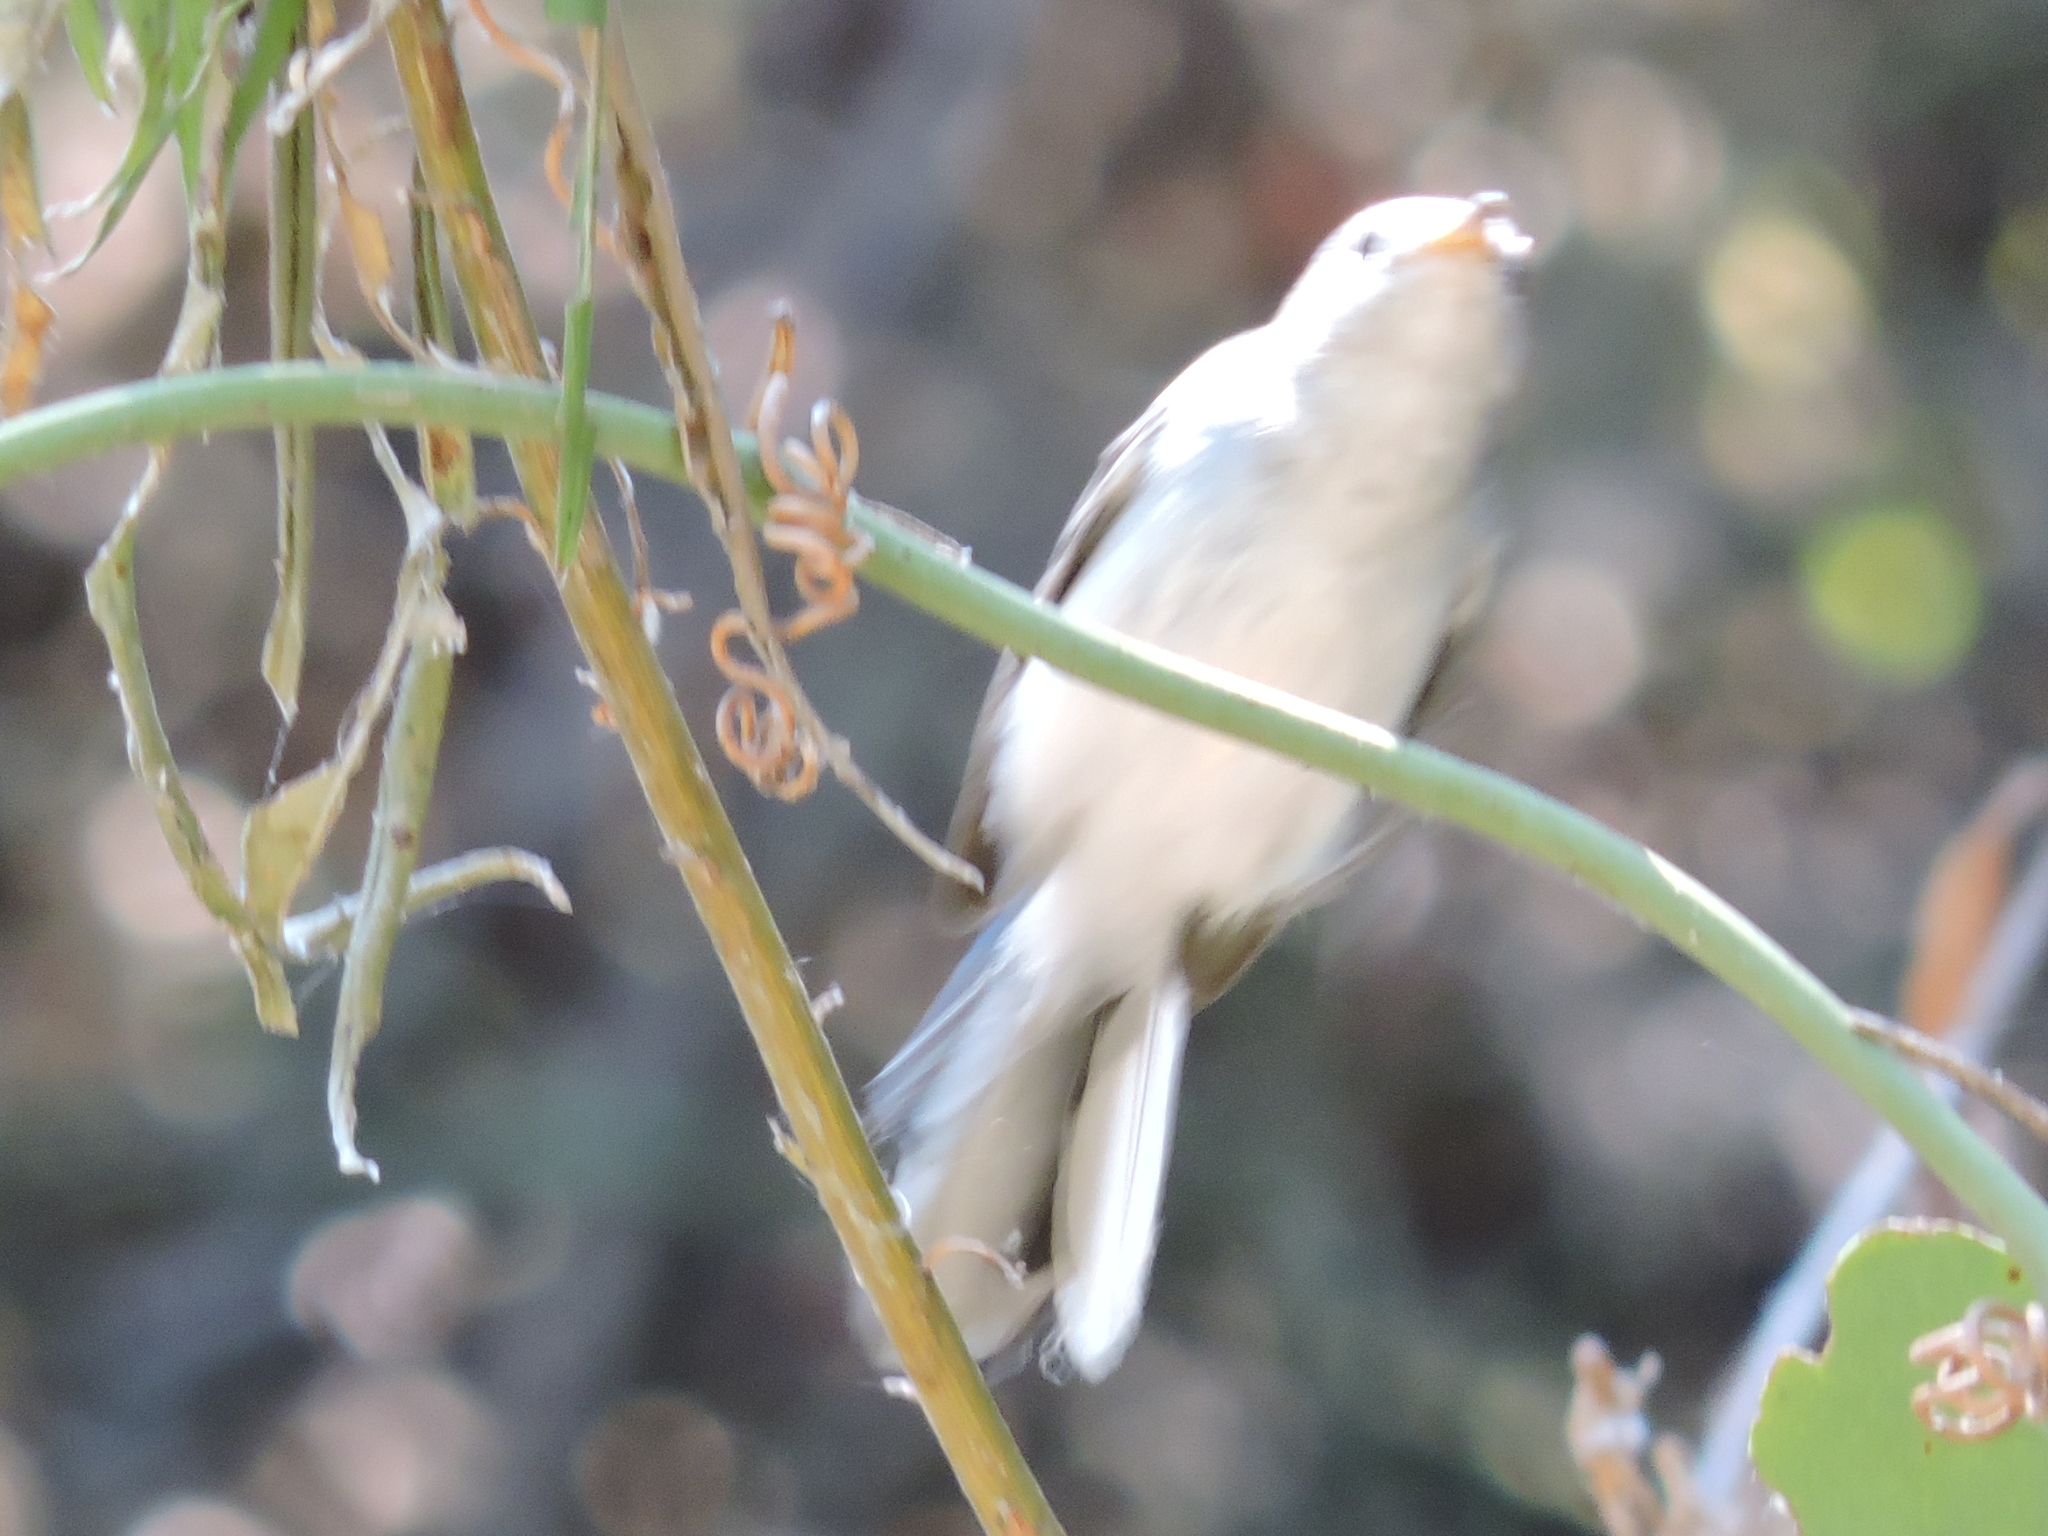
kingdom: Animalia
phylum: Chordata
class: Aves
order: Passeriformes
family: Polioptilidae
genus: Polioptila
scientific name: Polioptila caerulea
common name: Blue-gray gnatcatcher
